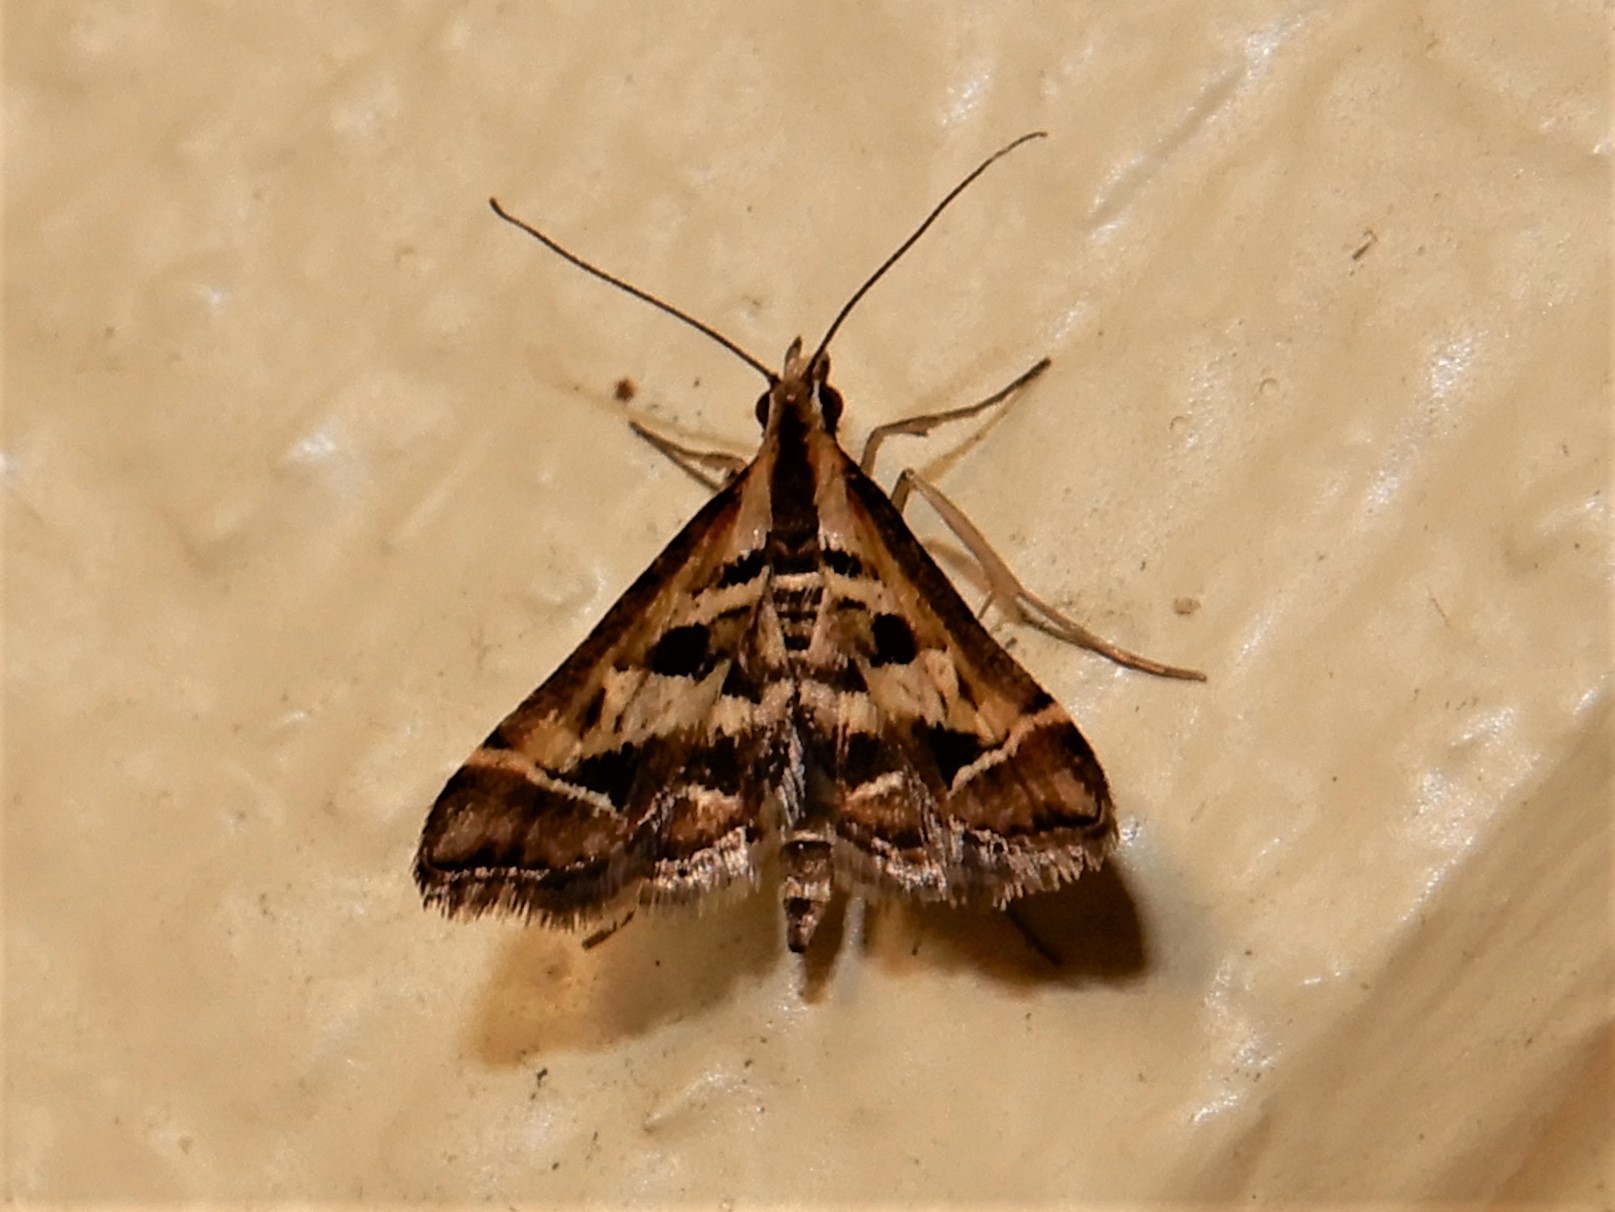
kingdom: Animalia
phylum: Arthropoda
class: Insecta
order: Lepidoptera
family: Crambidae
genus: Diasemia
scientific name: Diasemia grammalis
